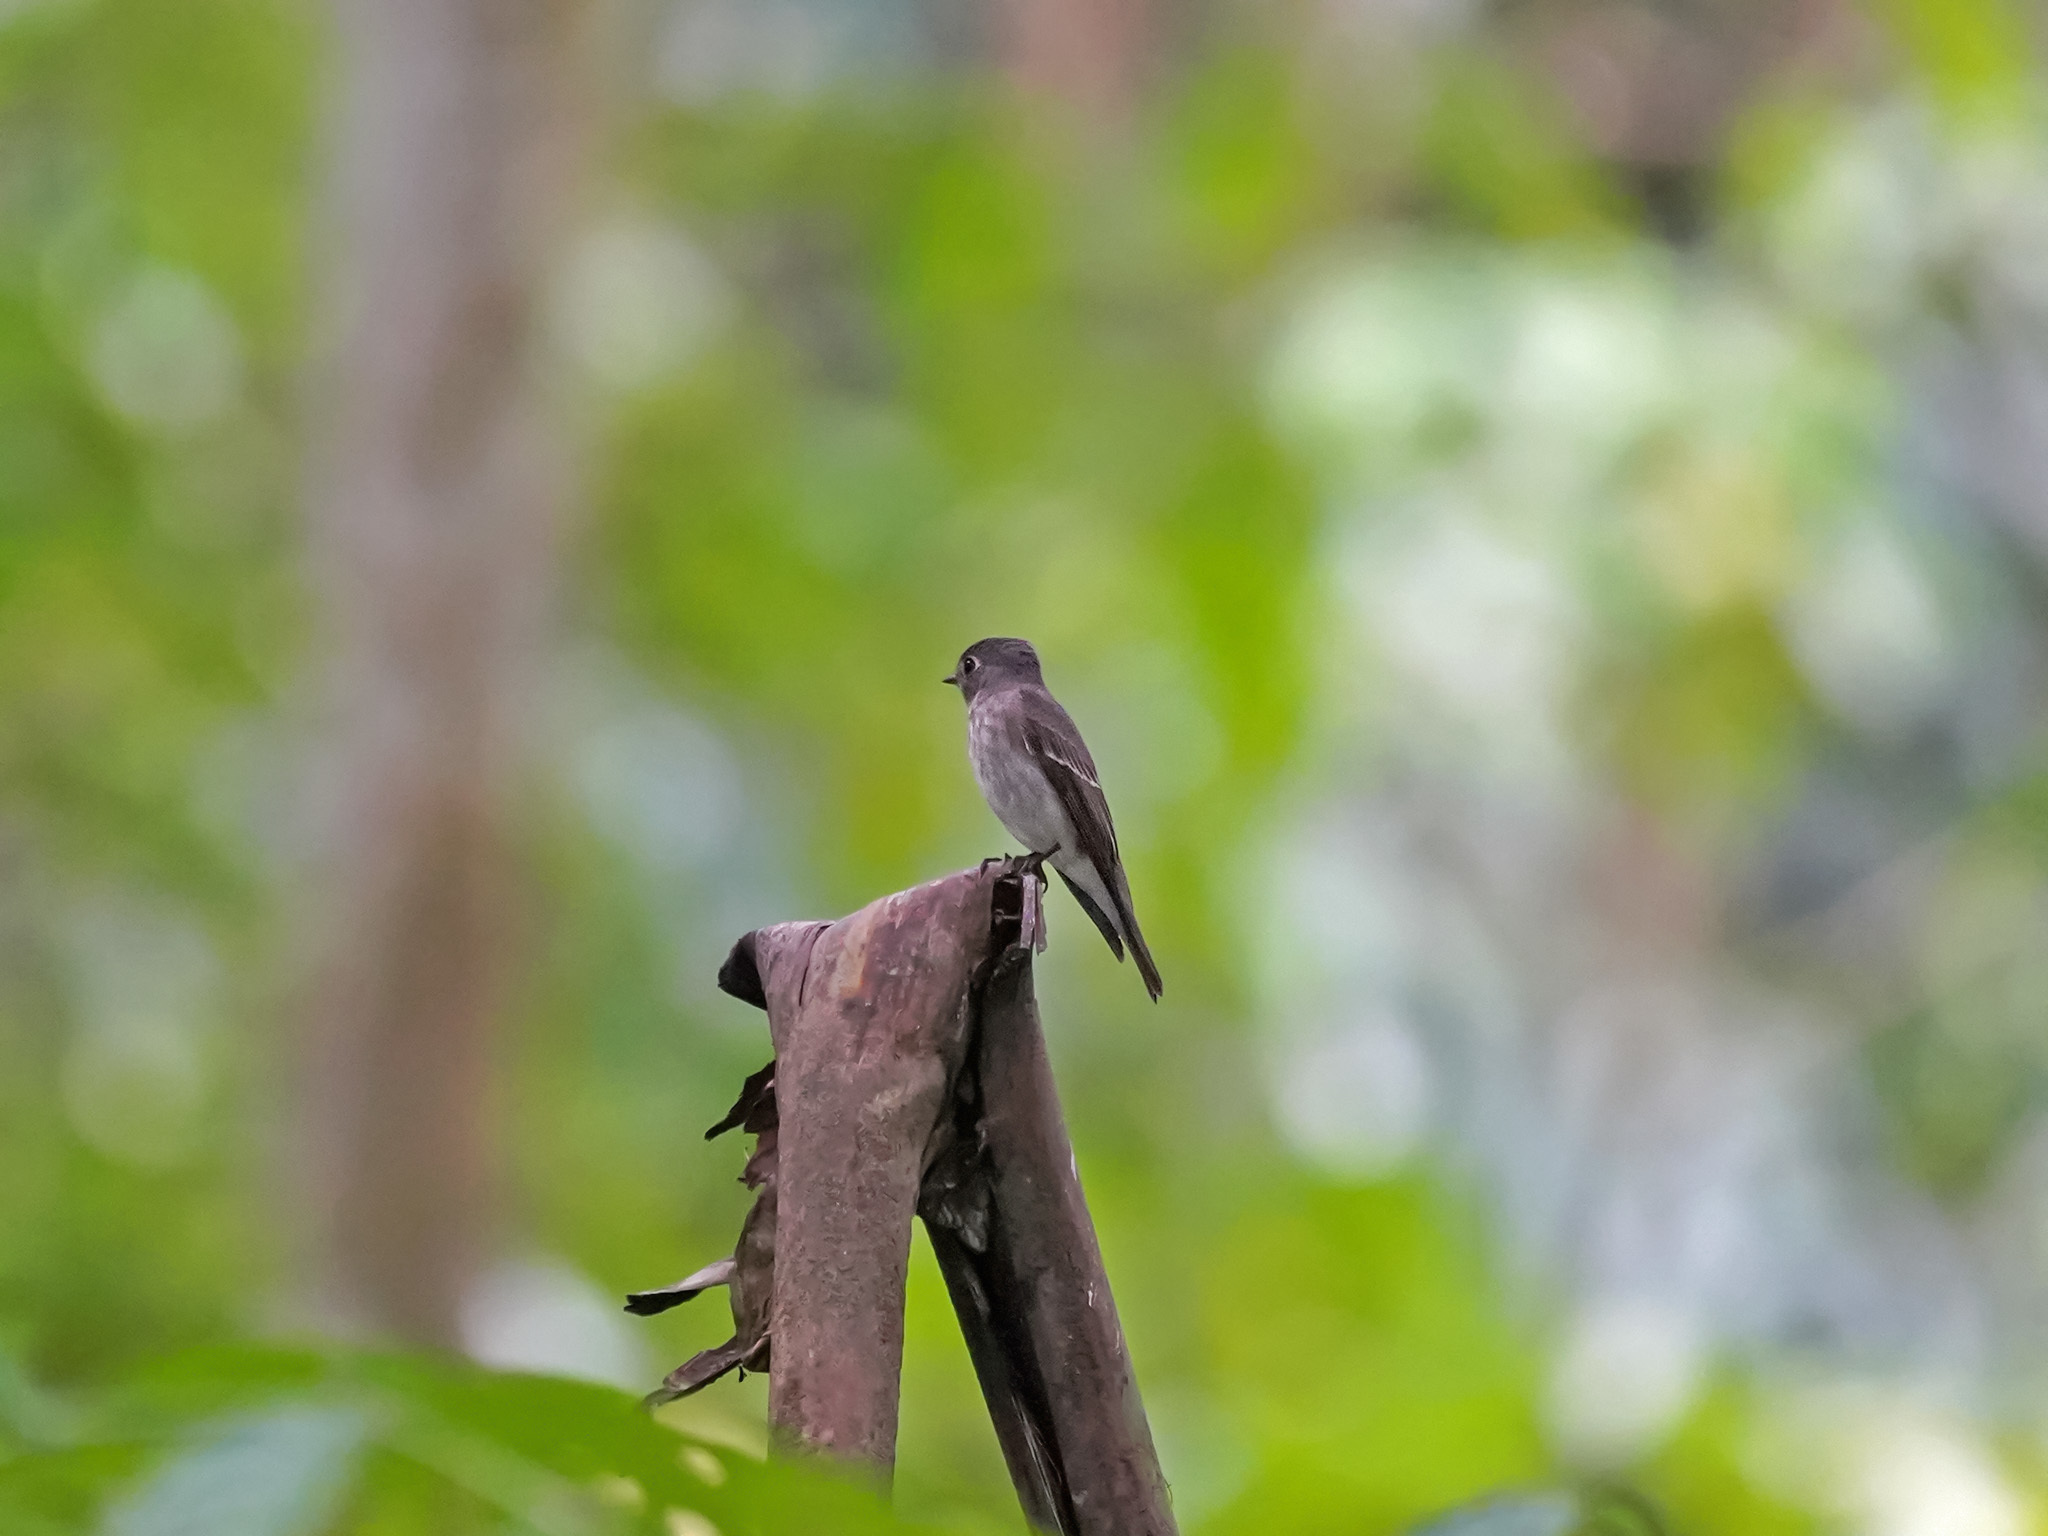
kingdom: Animalia
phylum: Chordata
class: Aves
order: Passeriformes
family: Muscicapidae
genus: Muscicapa
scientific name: Muscicapa sibirica
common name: Dark-sided flycatcher
